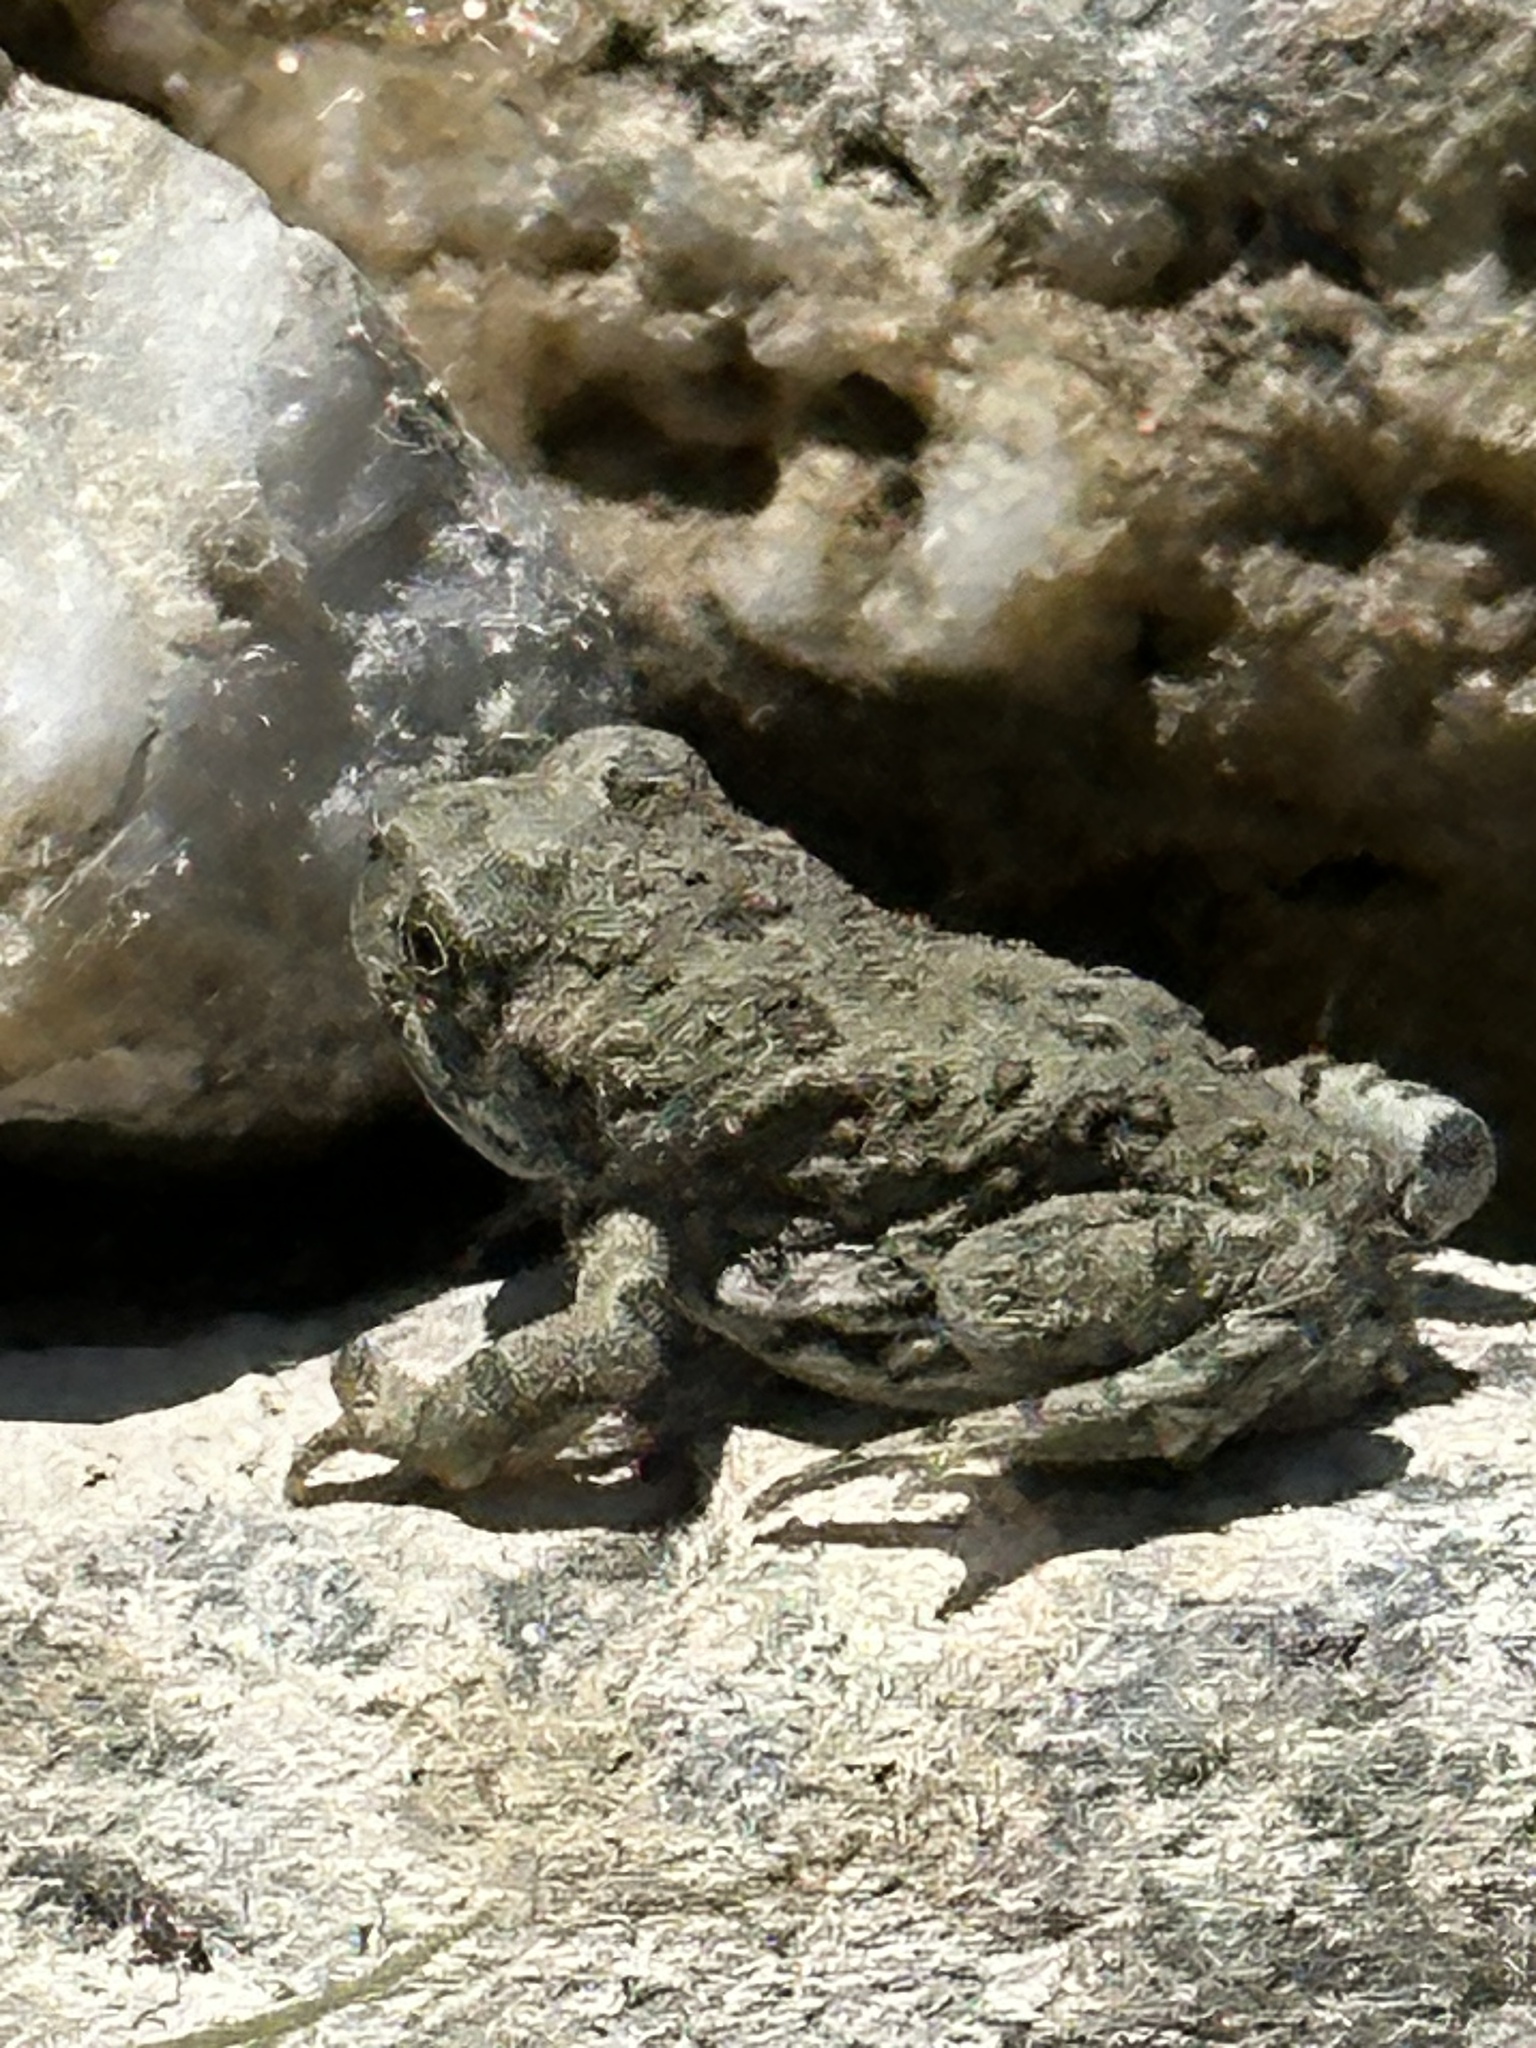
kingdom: Animalia
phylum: Chordata
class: Amphibia
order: Anura
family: Bufonidae
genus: Anaxyrus
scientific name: Anaxyrus boreas
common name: Western toad
